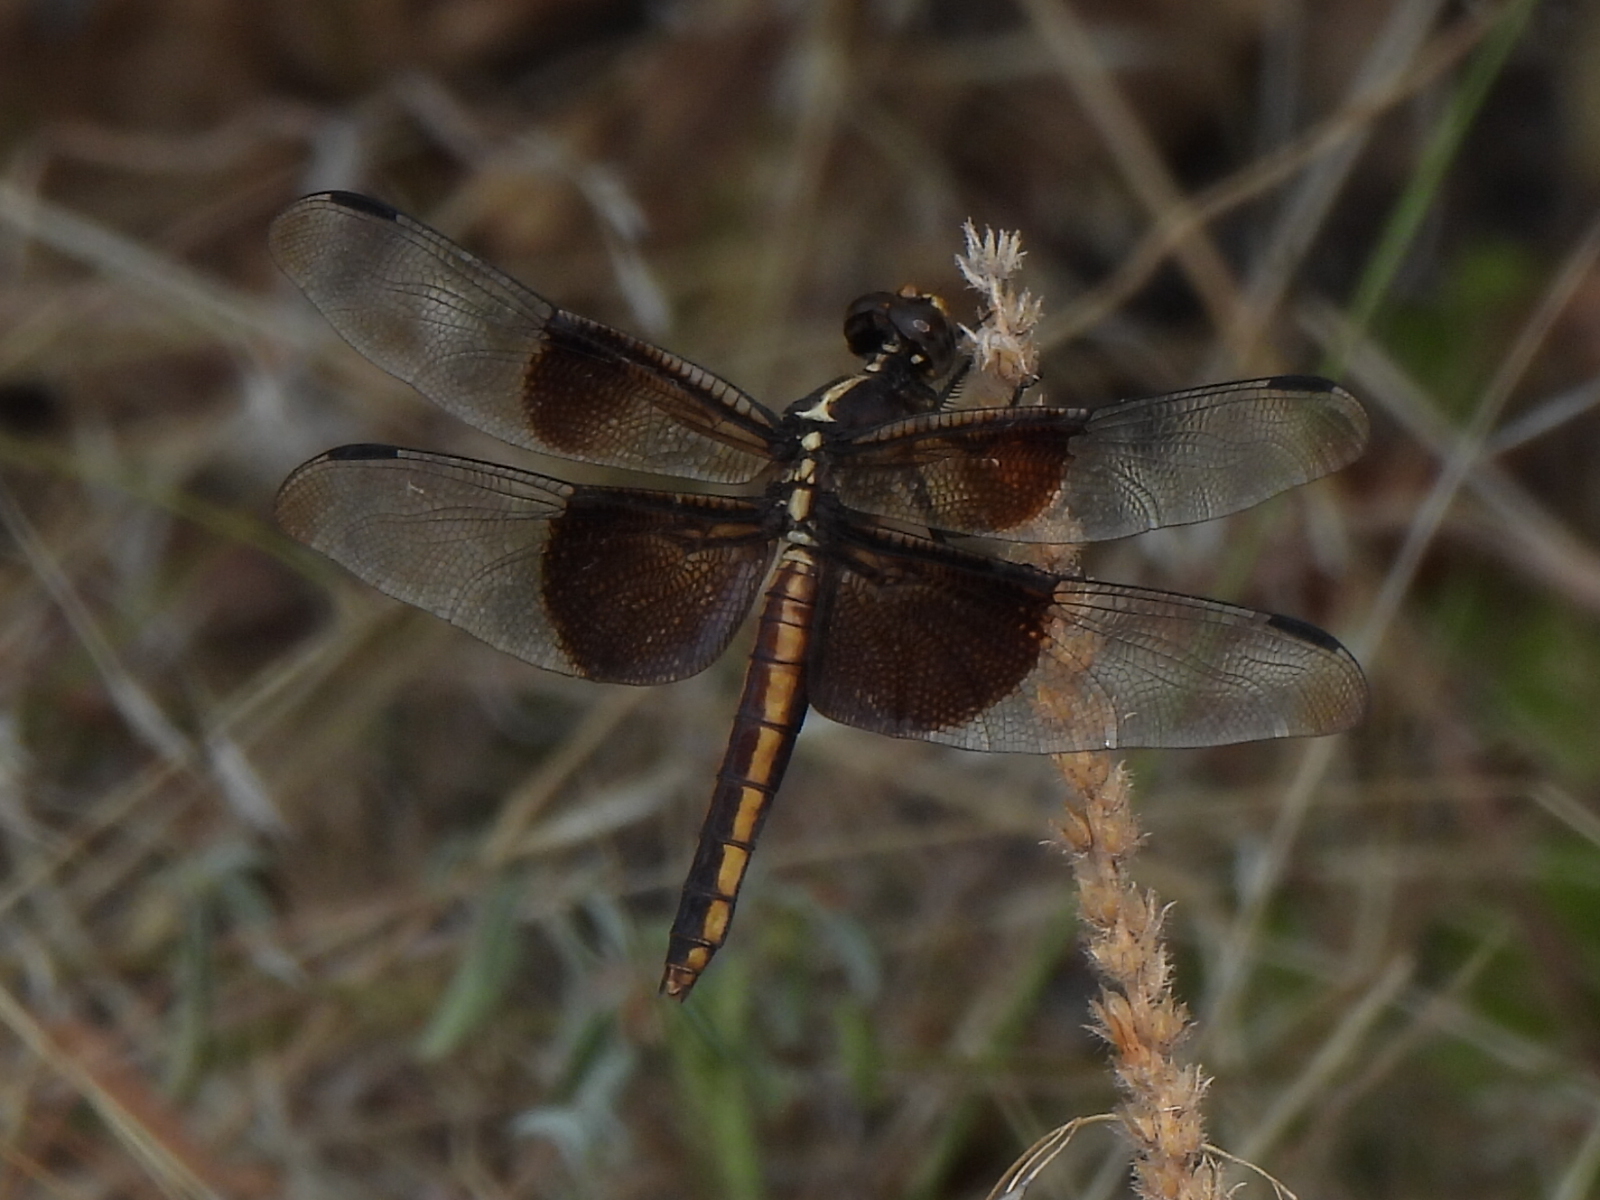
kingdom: Animalia
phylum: Arthropoda
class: Insecta
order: Odonata
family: Libellulidae
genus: Libellula
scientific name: Libellula luctuosa
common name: Widow skimmer
